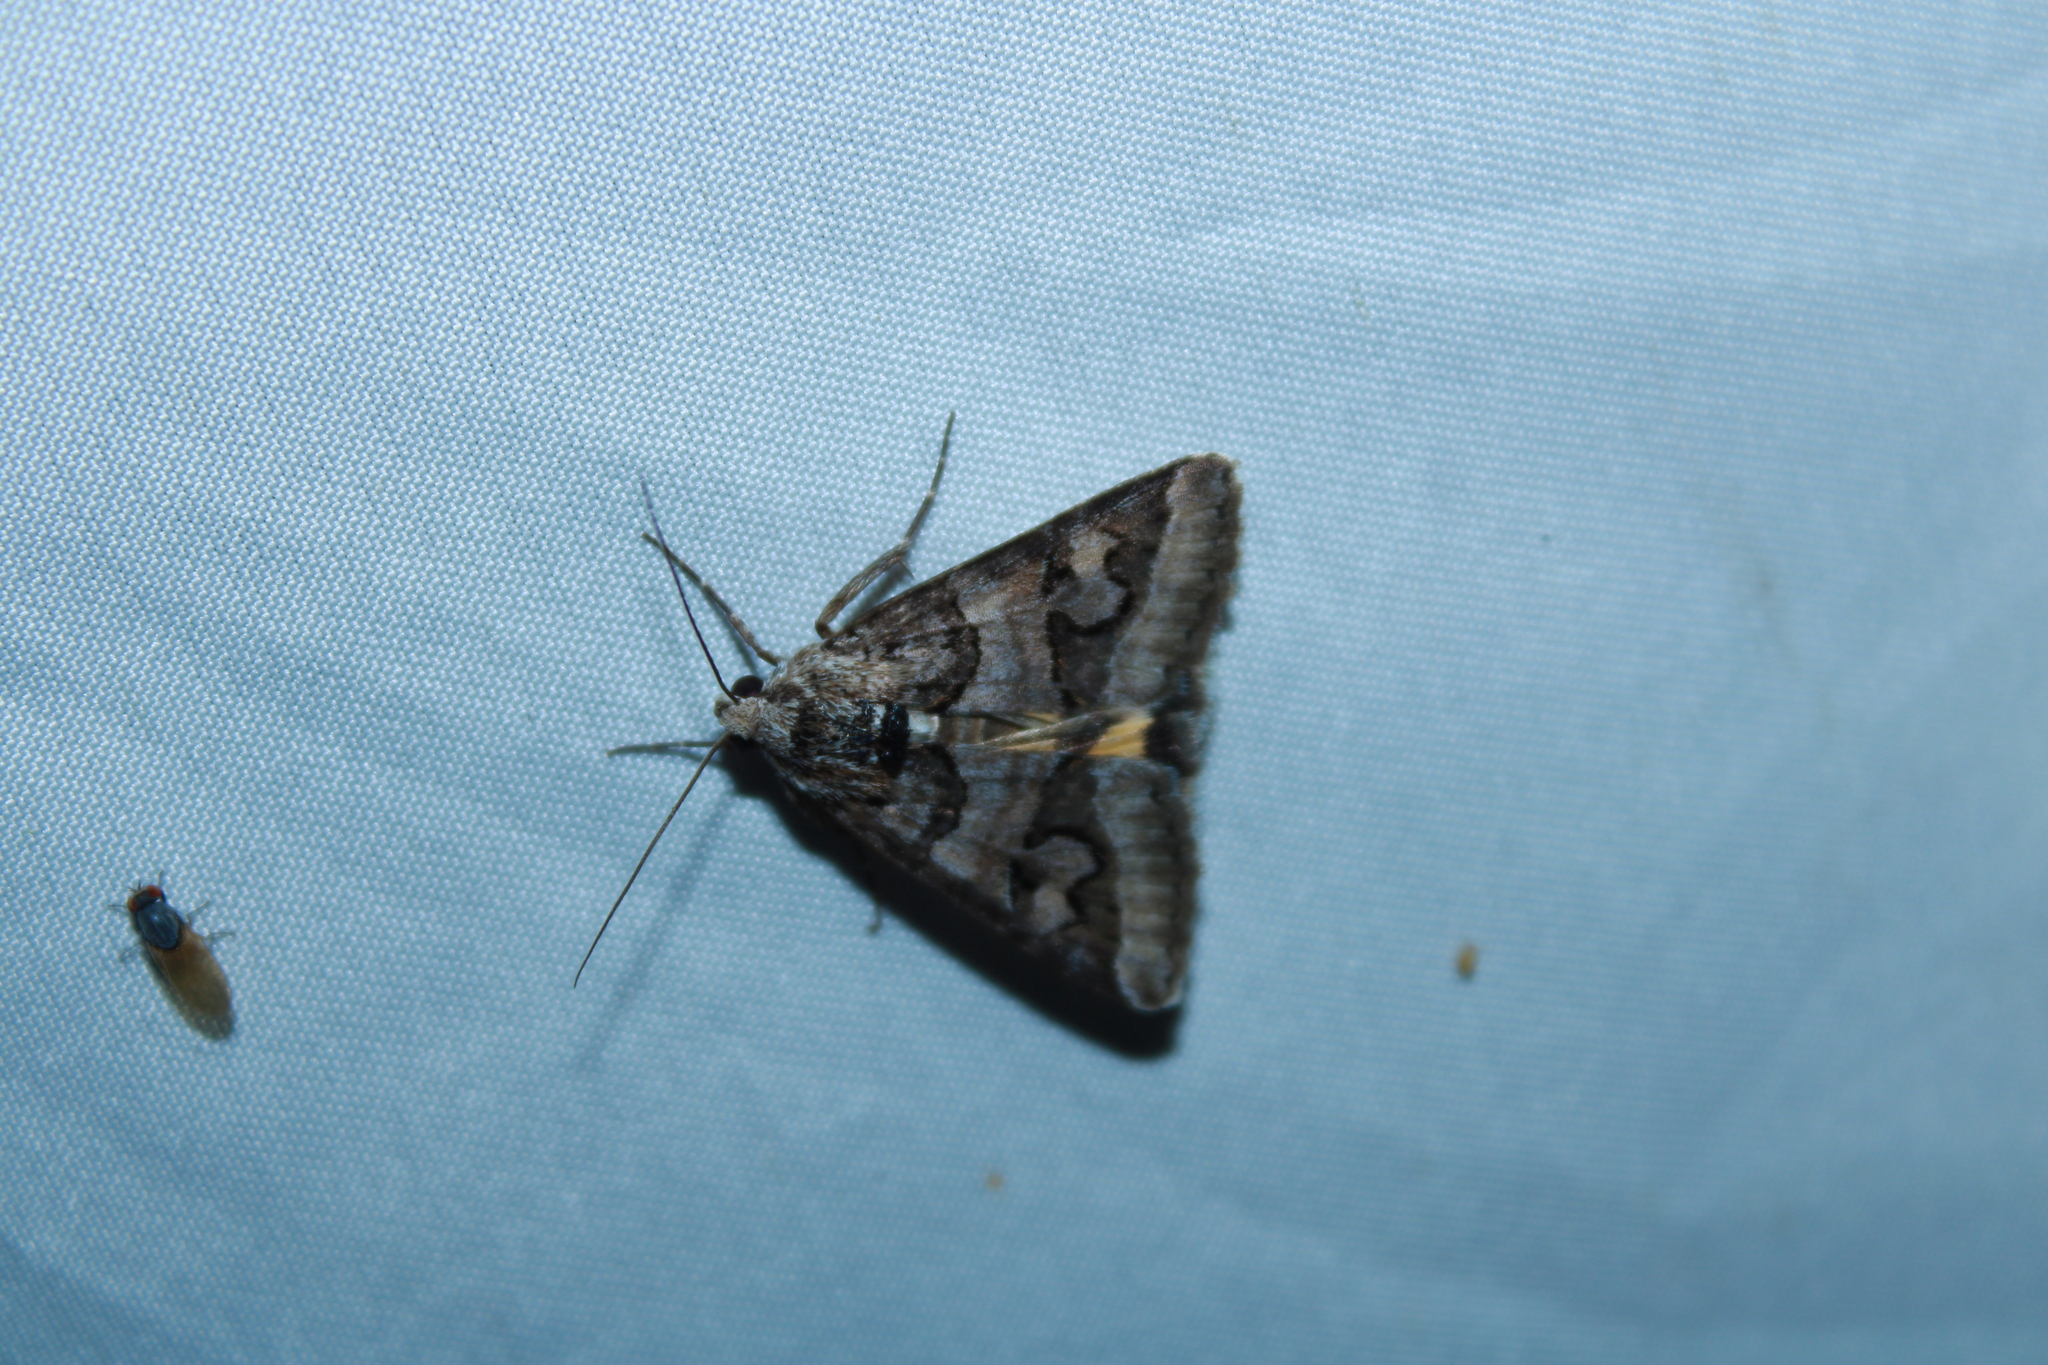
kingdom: Animalia
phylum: Arthropoda
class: Insecta
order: Lepidoptera
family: Erebidae
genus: Drasteria
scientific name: Drasteria graphica
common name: Coastal graphic
